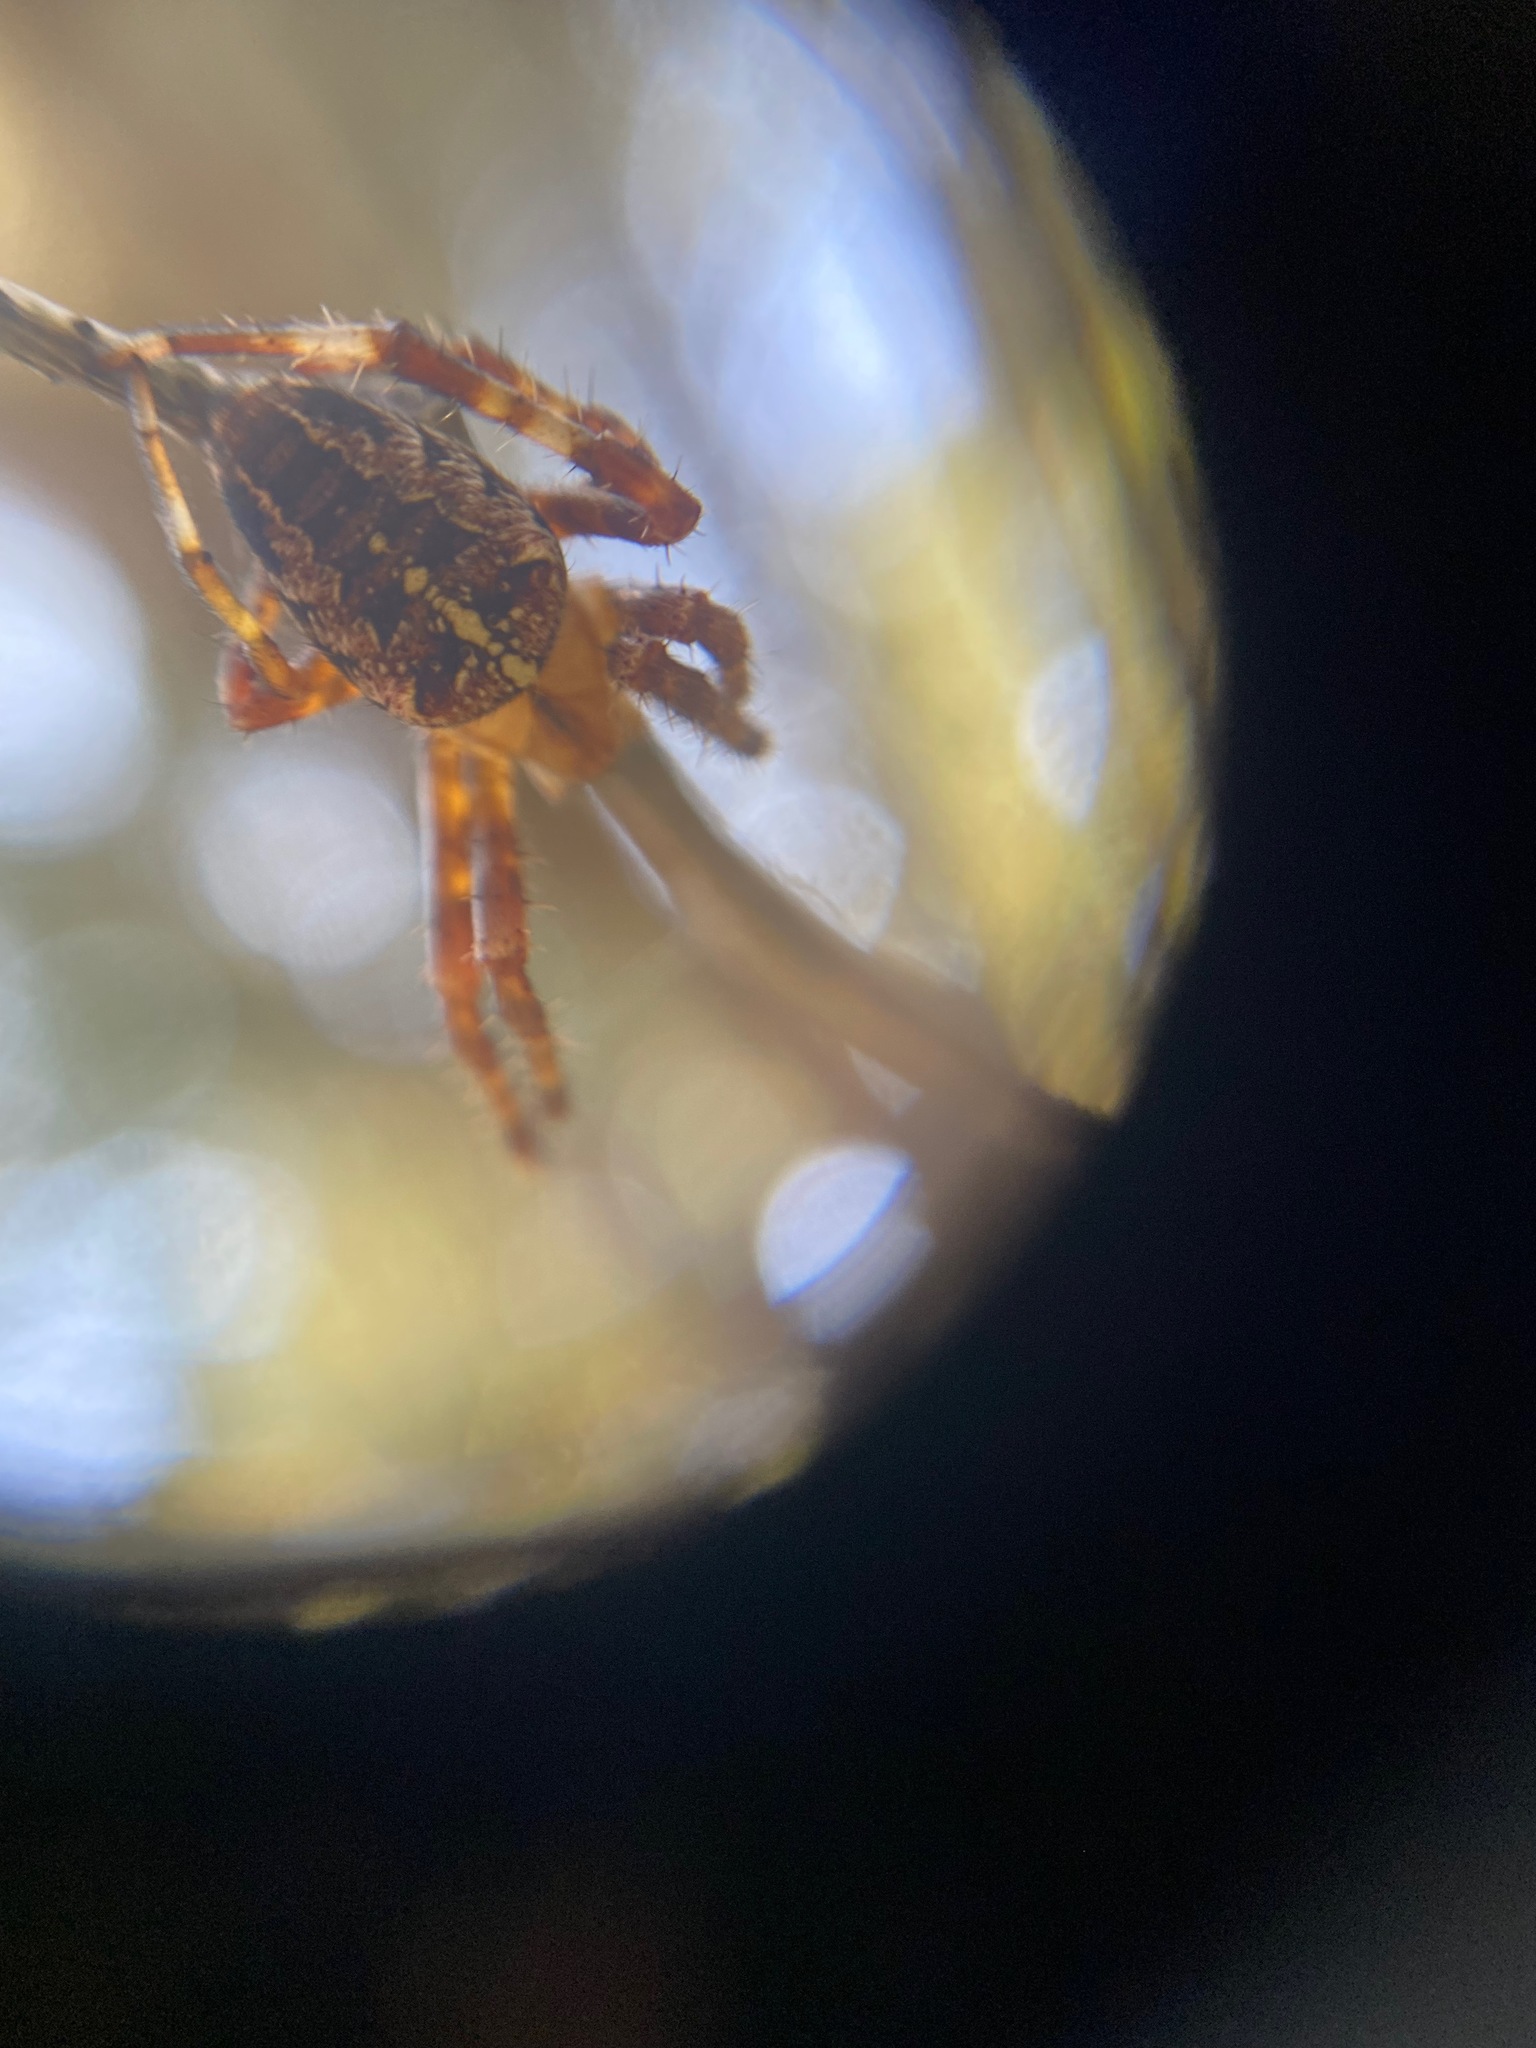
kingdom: Animalia
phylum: Arthropoda
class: Arachnida
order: Araneae
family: Araneidae
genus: Araneus
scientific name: Araneus diadematus
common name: Cross orbweaver
